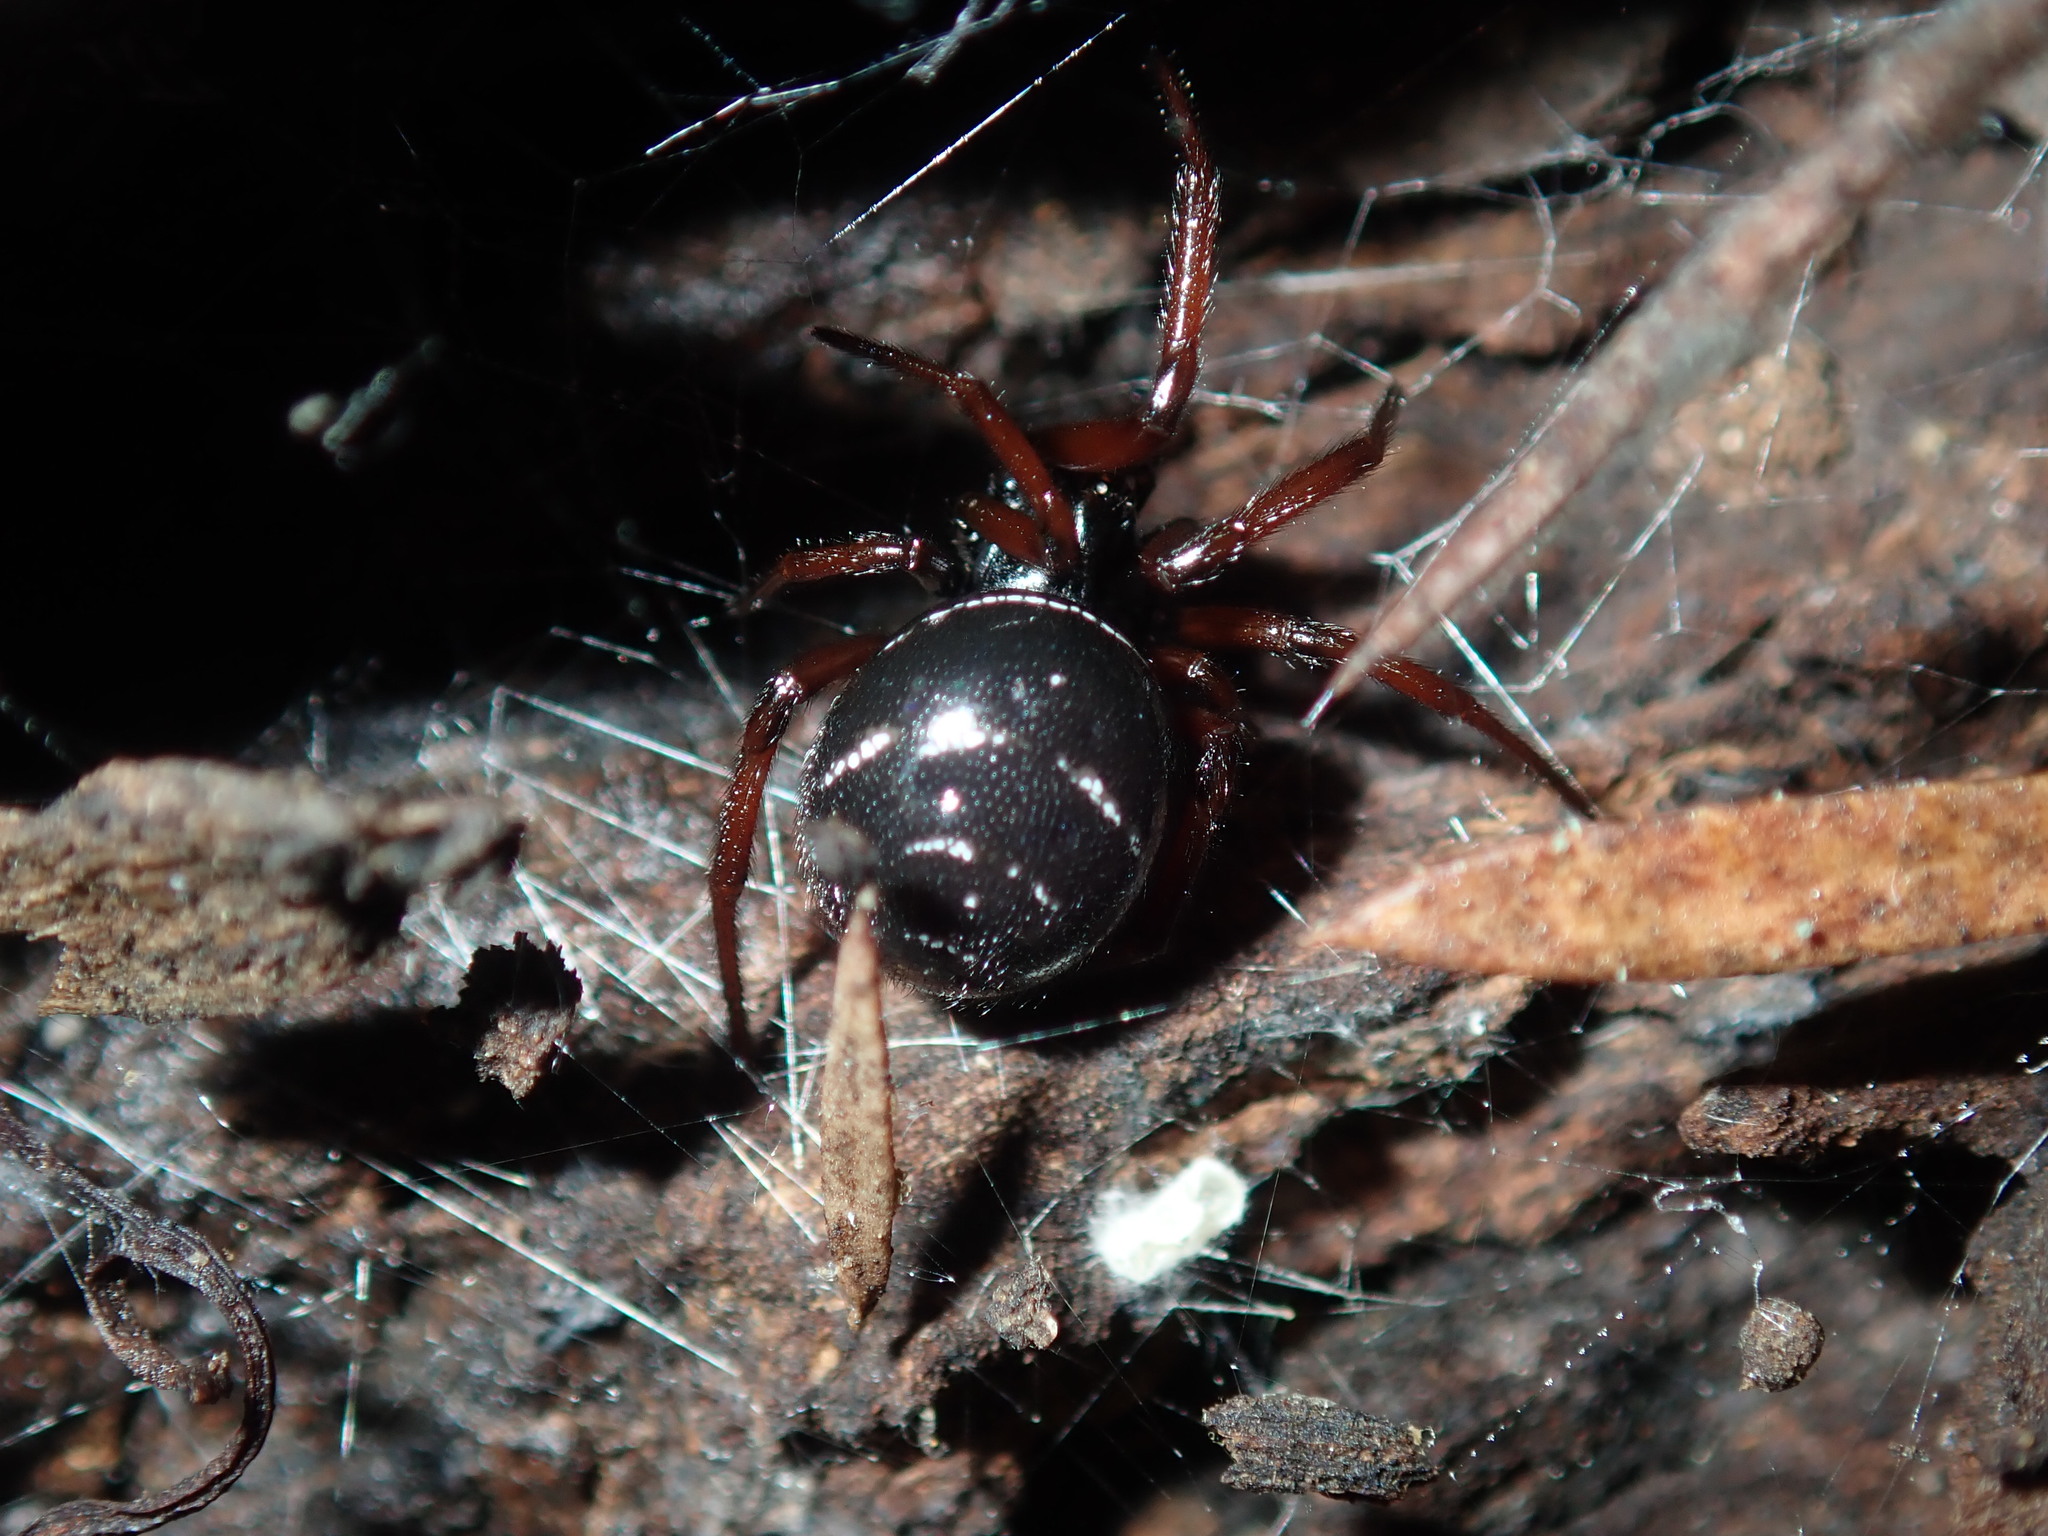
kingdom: Animalia
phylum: Arthropoda
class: Arachnida
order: Araneae
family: Theridiidae
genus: Steatoda
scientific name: Steatoda capensis
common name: Cobweb weaver
